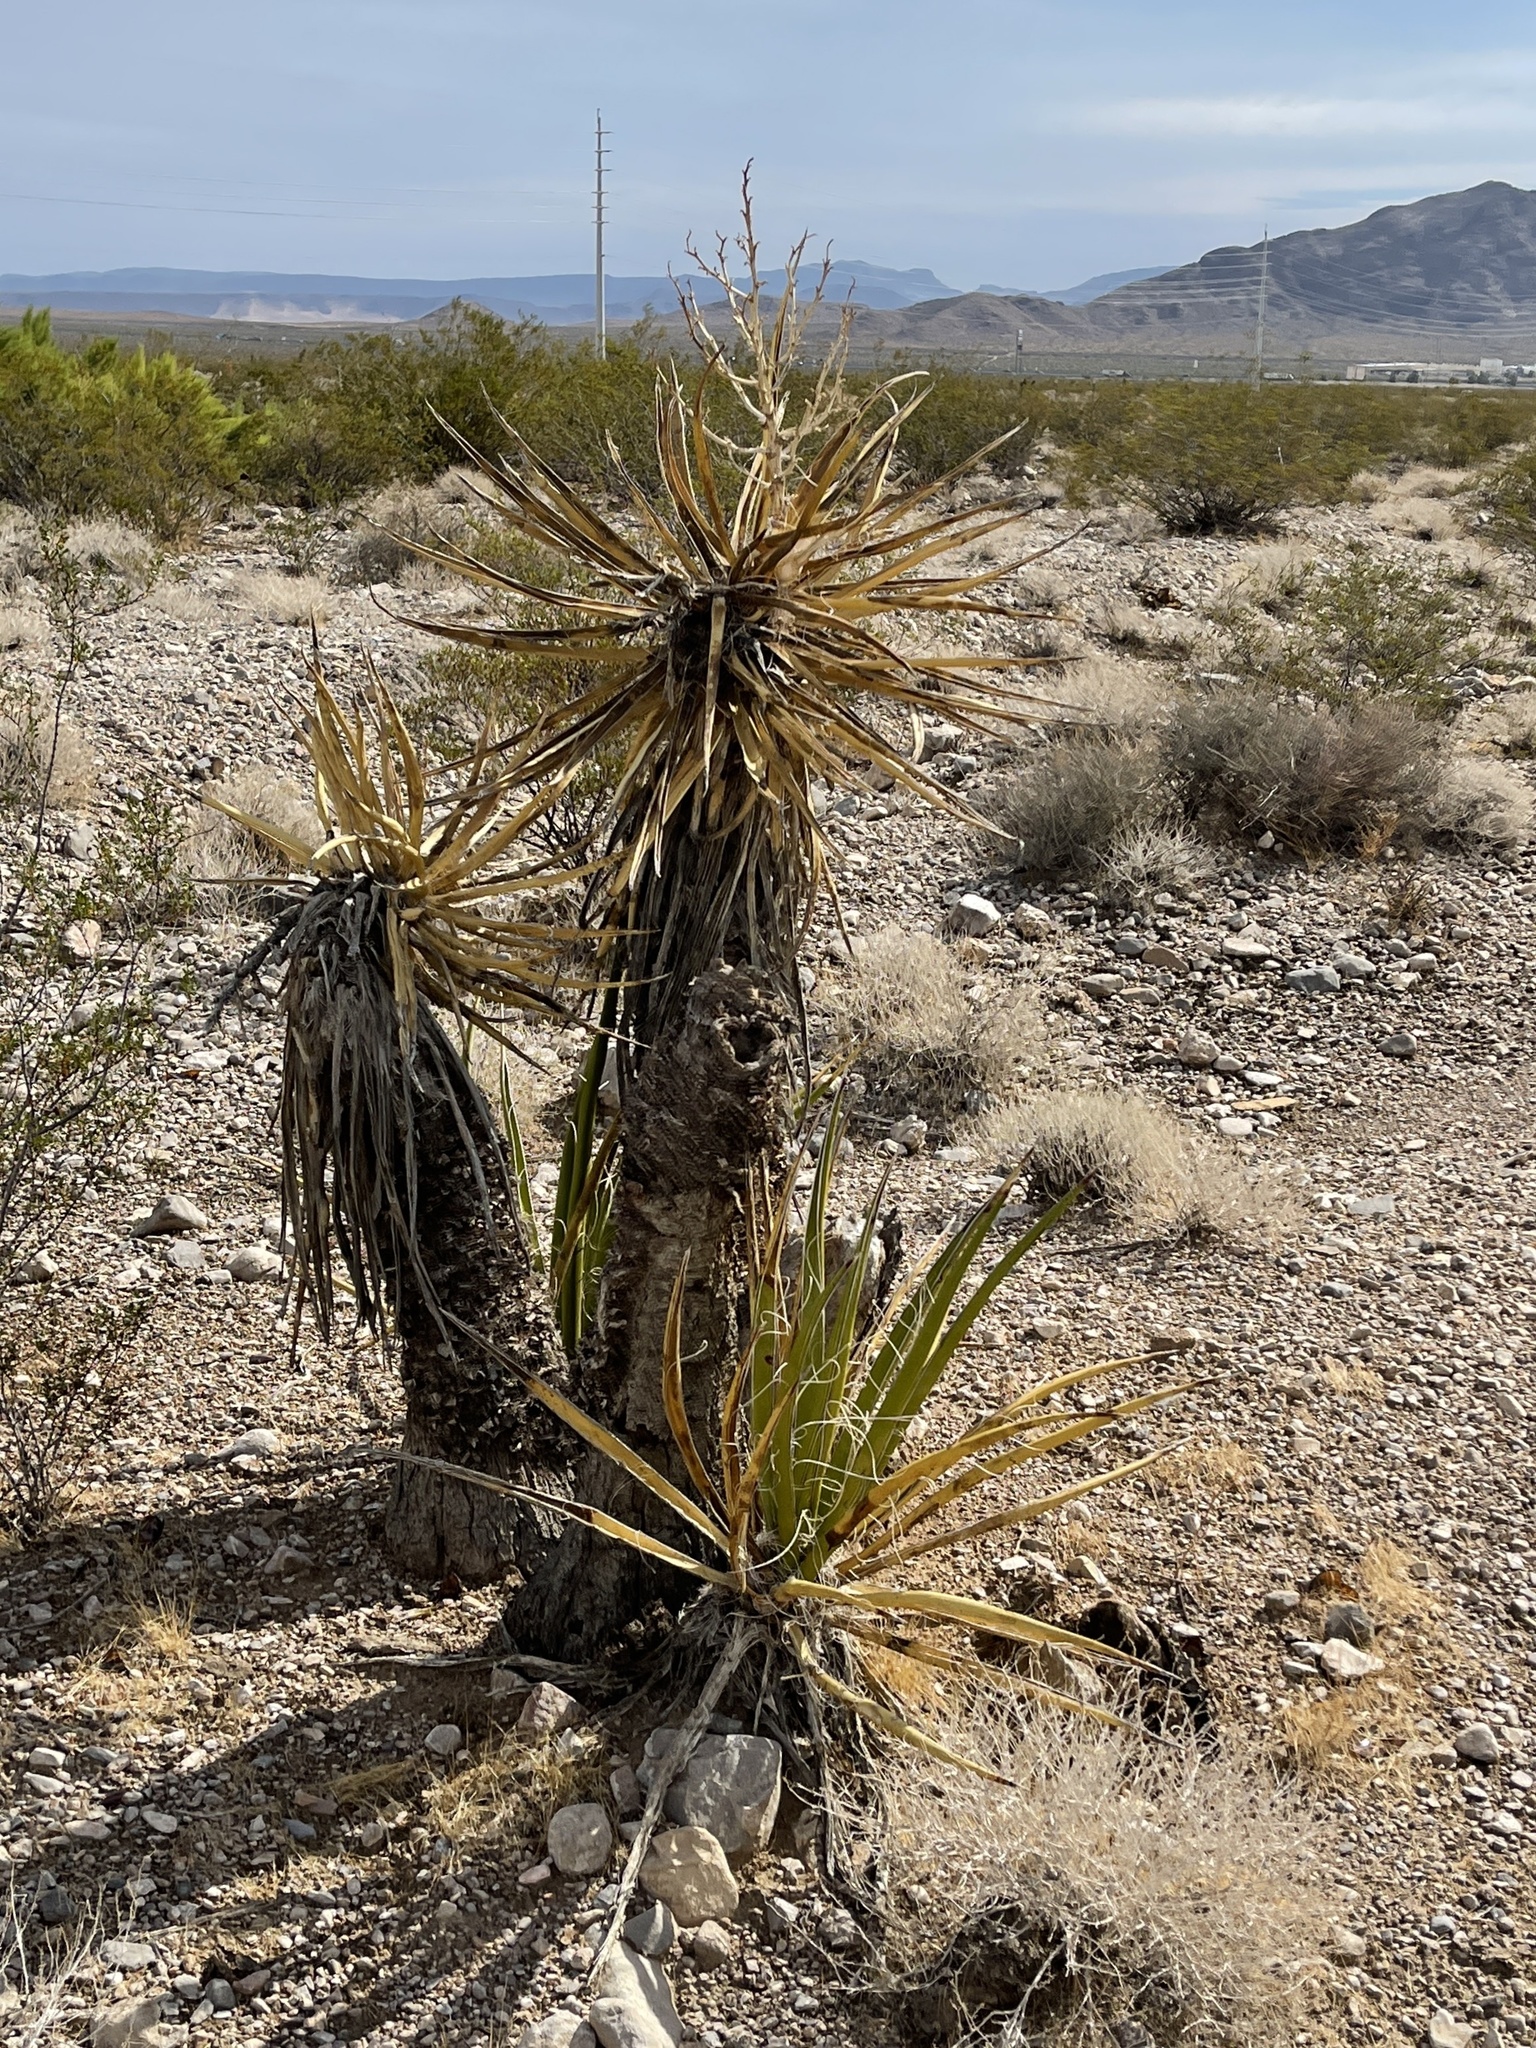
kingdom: Plantae
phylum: Tracheophyta
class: Liliopsida
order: Asparagales
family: Asparagaceae
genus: Yucca
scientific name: Yucca schidigera
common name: Mojave yucca
